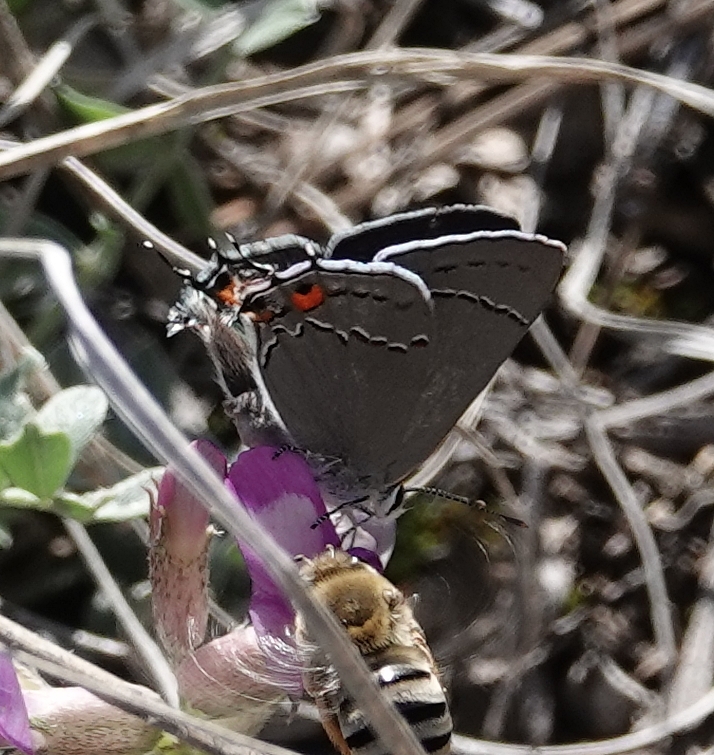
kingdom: Animalia
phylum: Arthropoda
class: Insecta
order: Lepidoptera
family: Lycaenidae
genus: Strymon
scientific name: Strymon melinus
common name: Gray hairstreak
